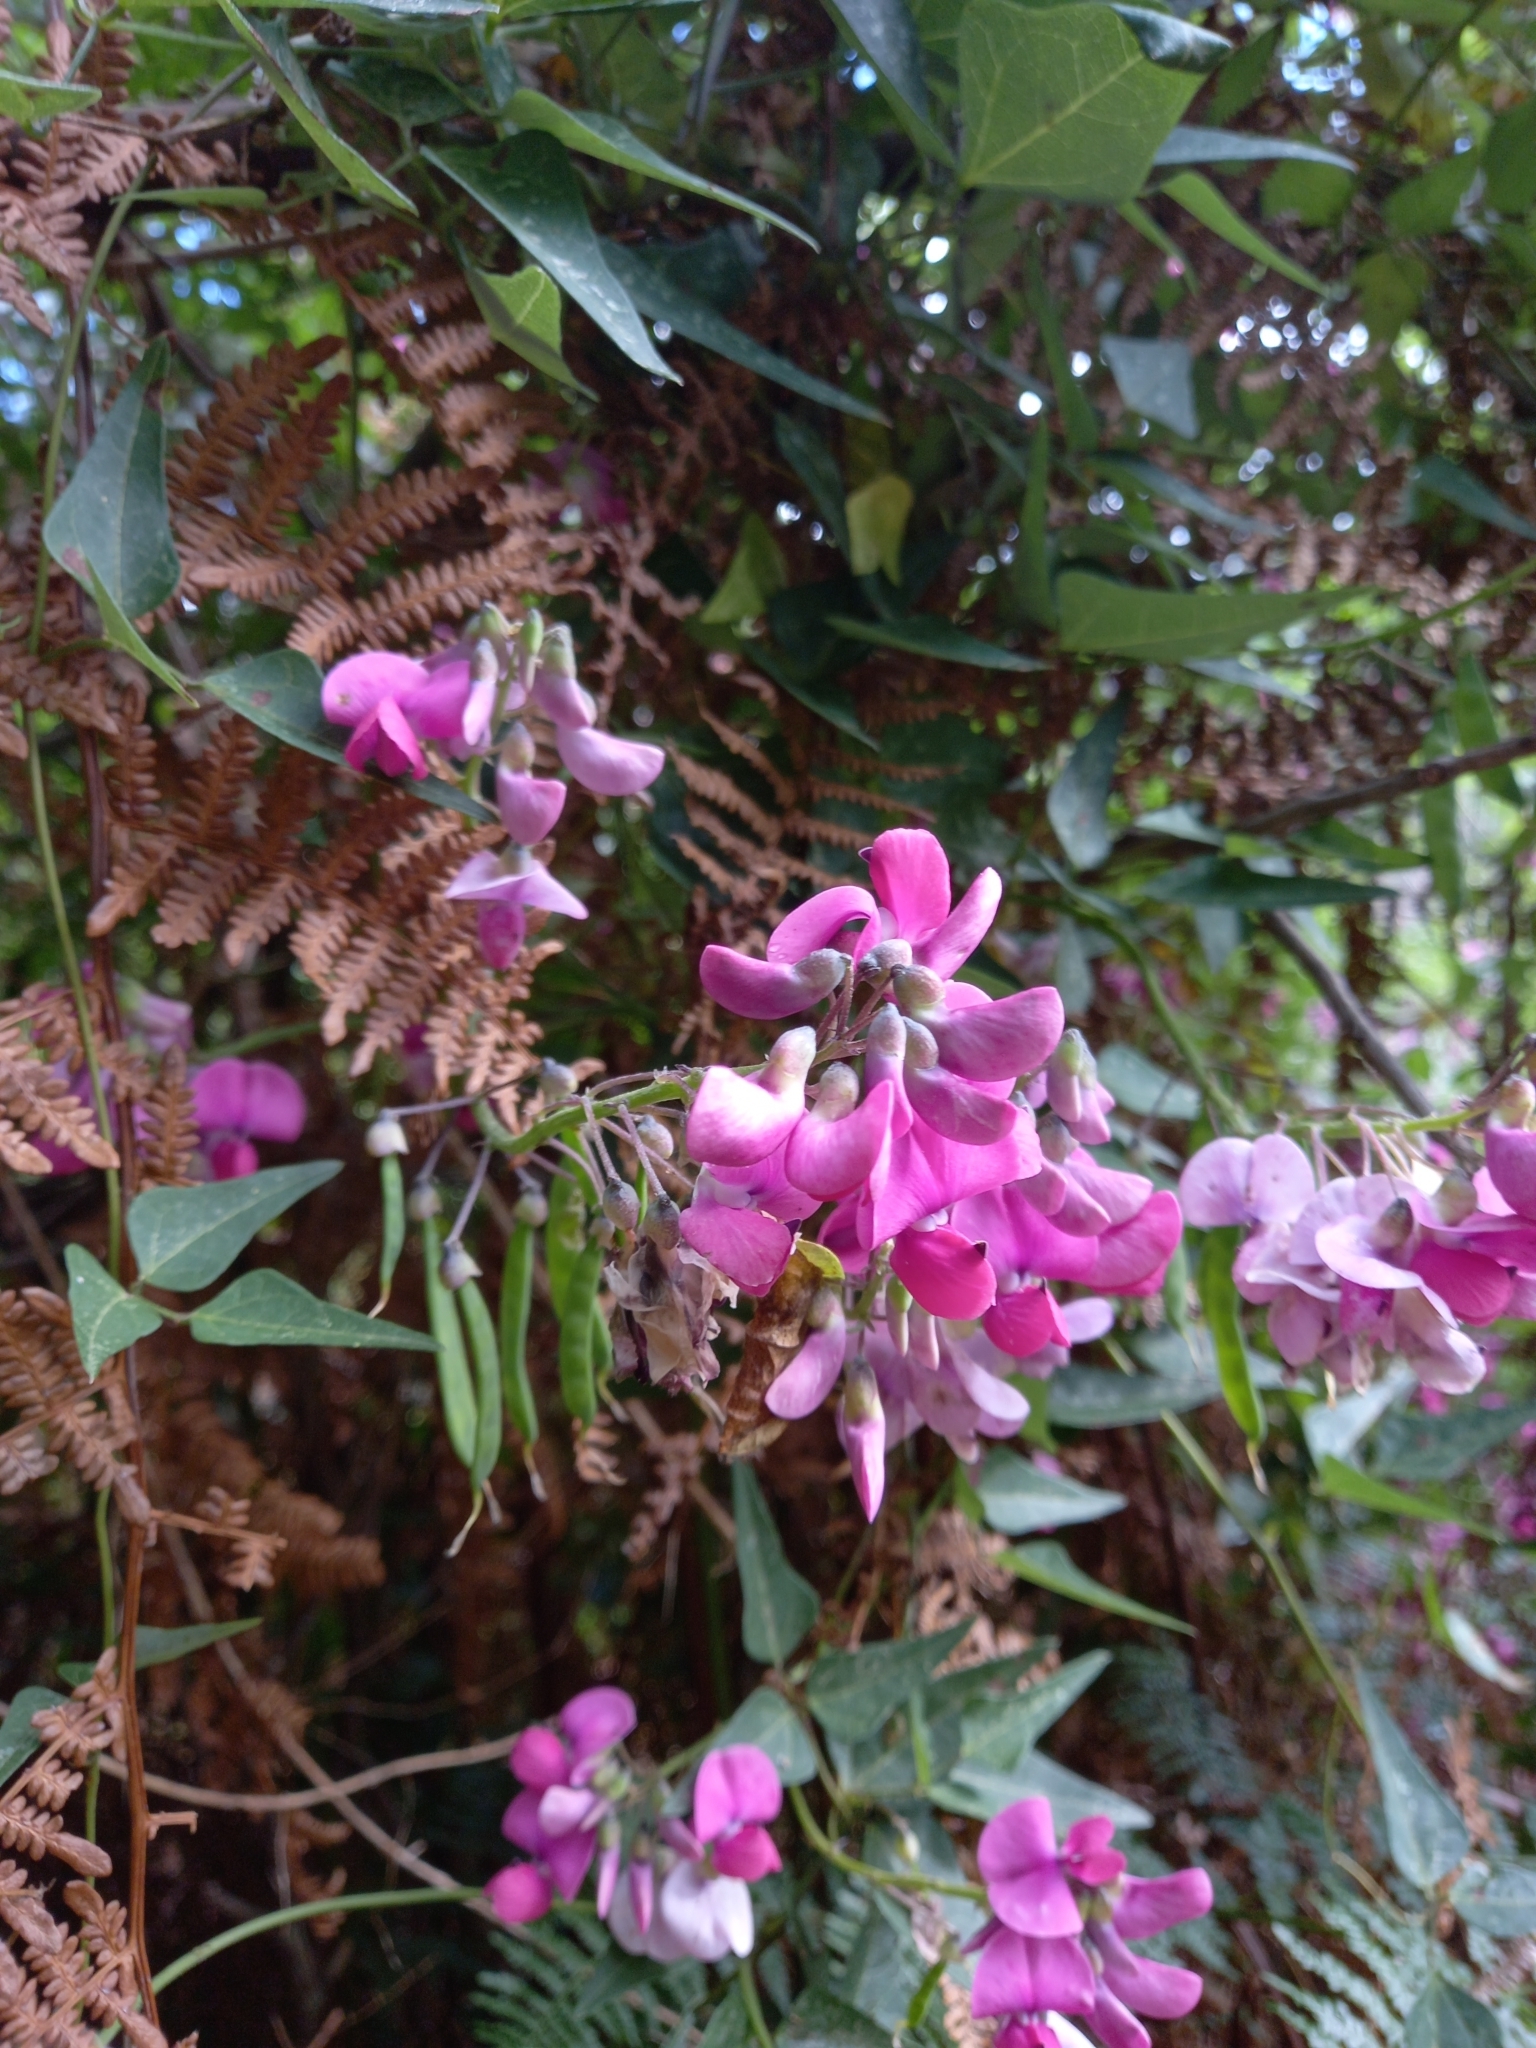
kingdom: Plantae
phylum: Tracheophyta
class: Magnoliopsida
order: Fabales
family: Fabaceae
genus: Dipogon
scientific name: Dipogon lignosus
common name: Okie bean
